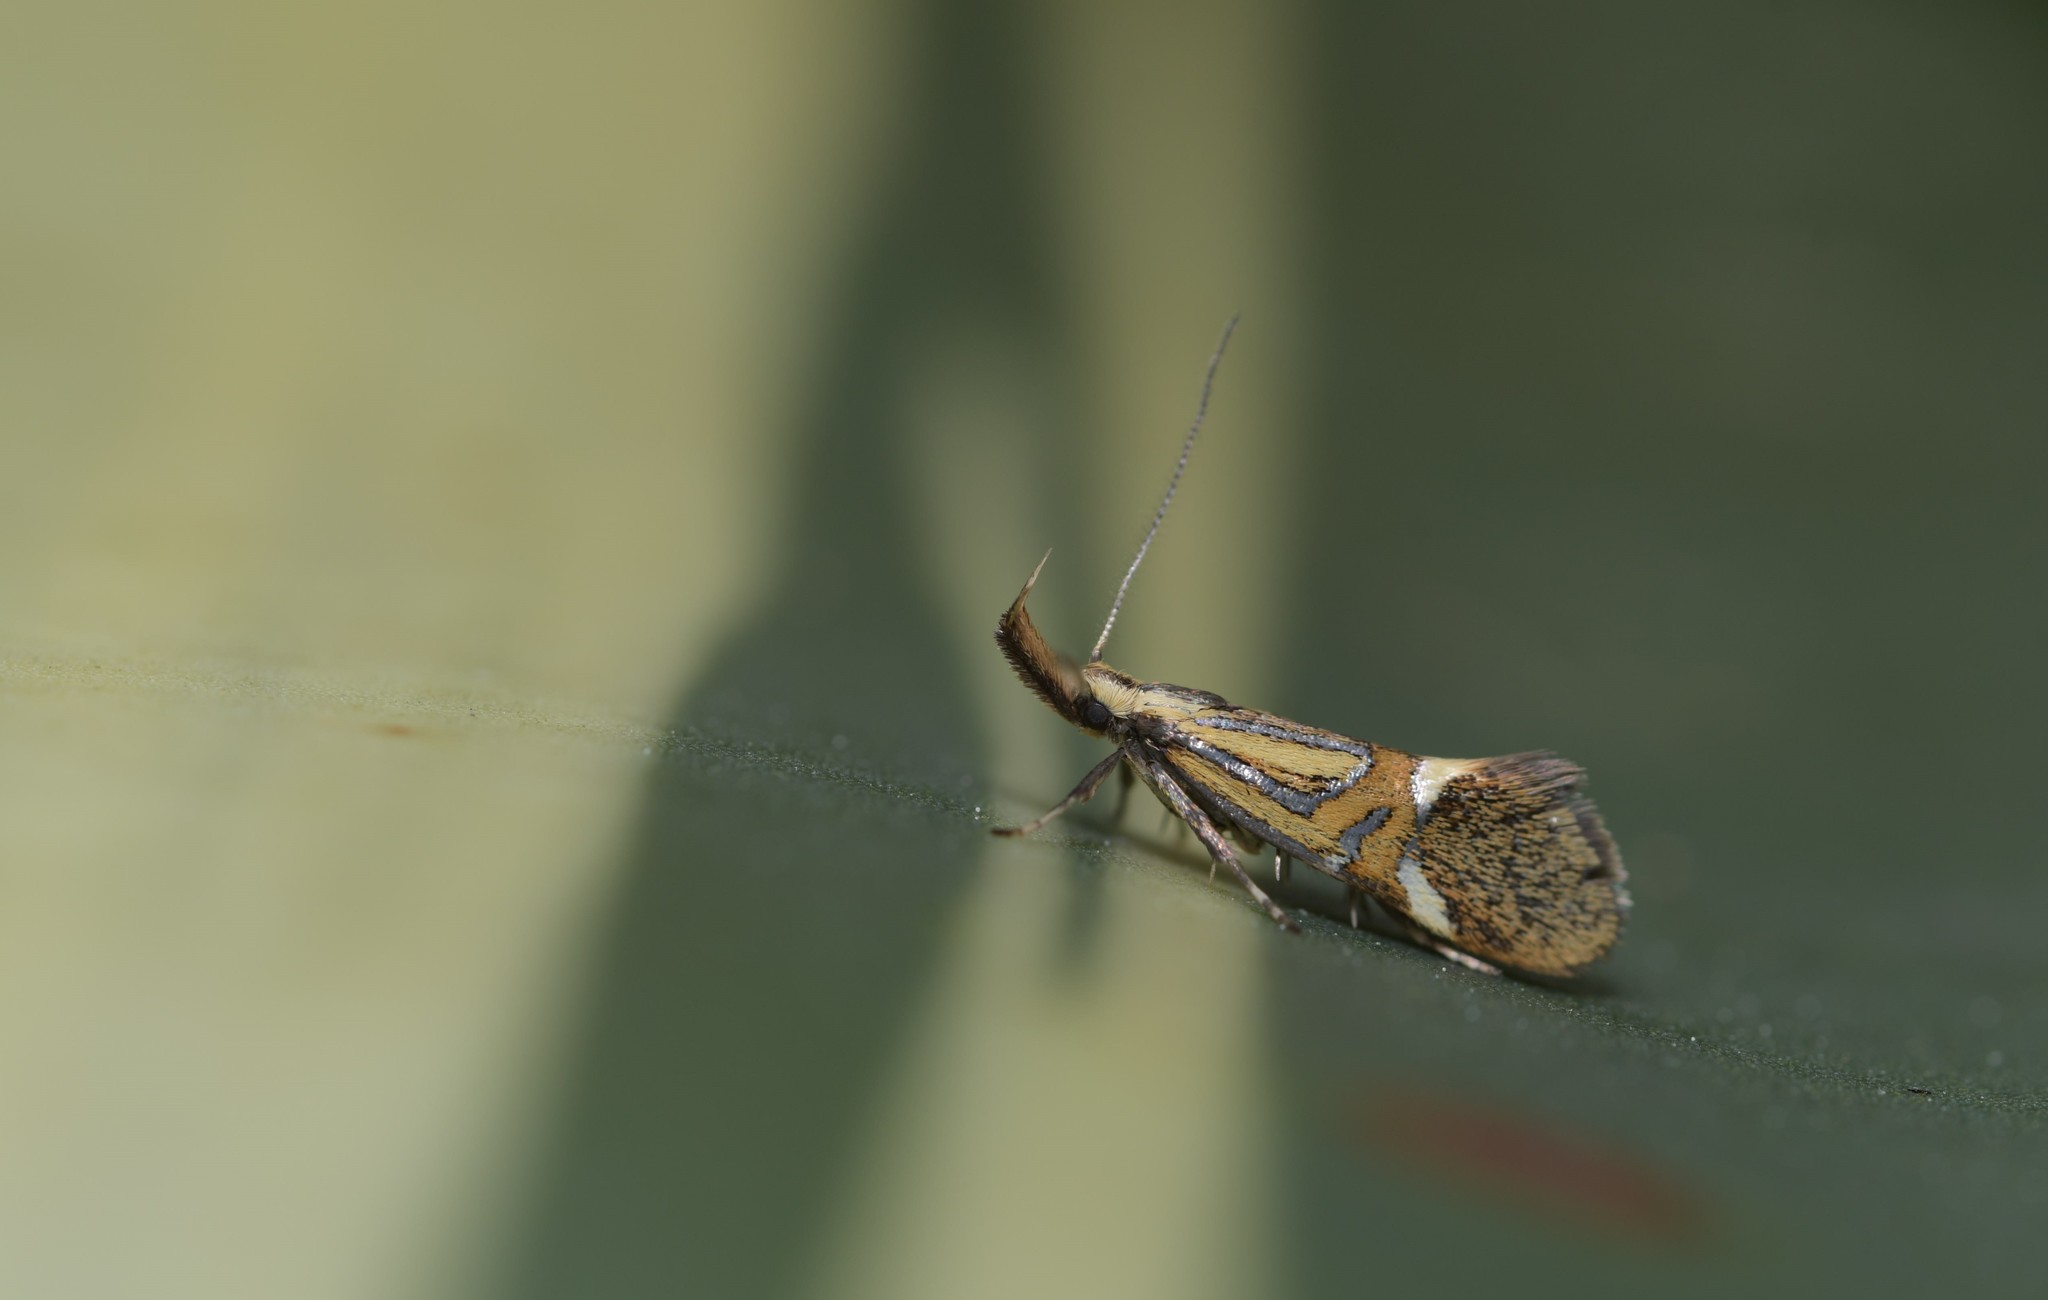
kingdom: Animalia
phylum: Arthropoda
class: Insecta
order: Lepidoptera
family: Oecophoridae
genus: Oecophora
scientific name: Oecophora herculeella
